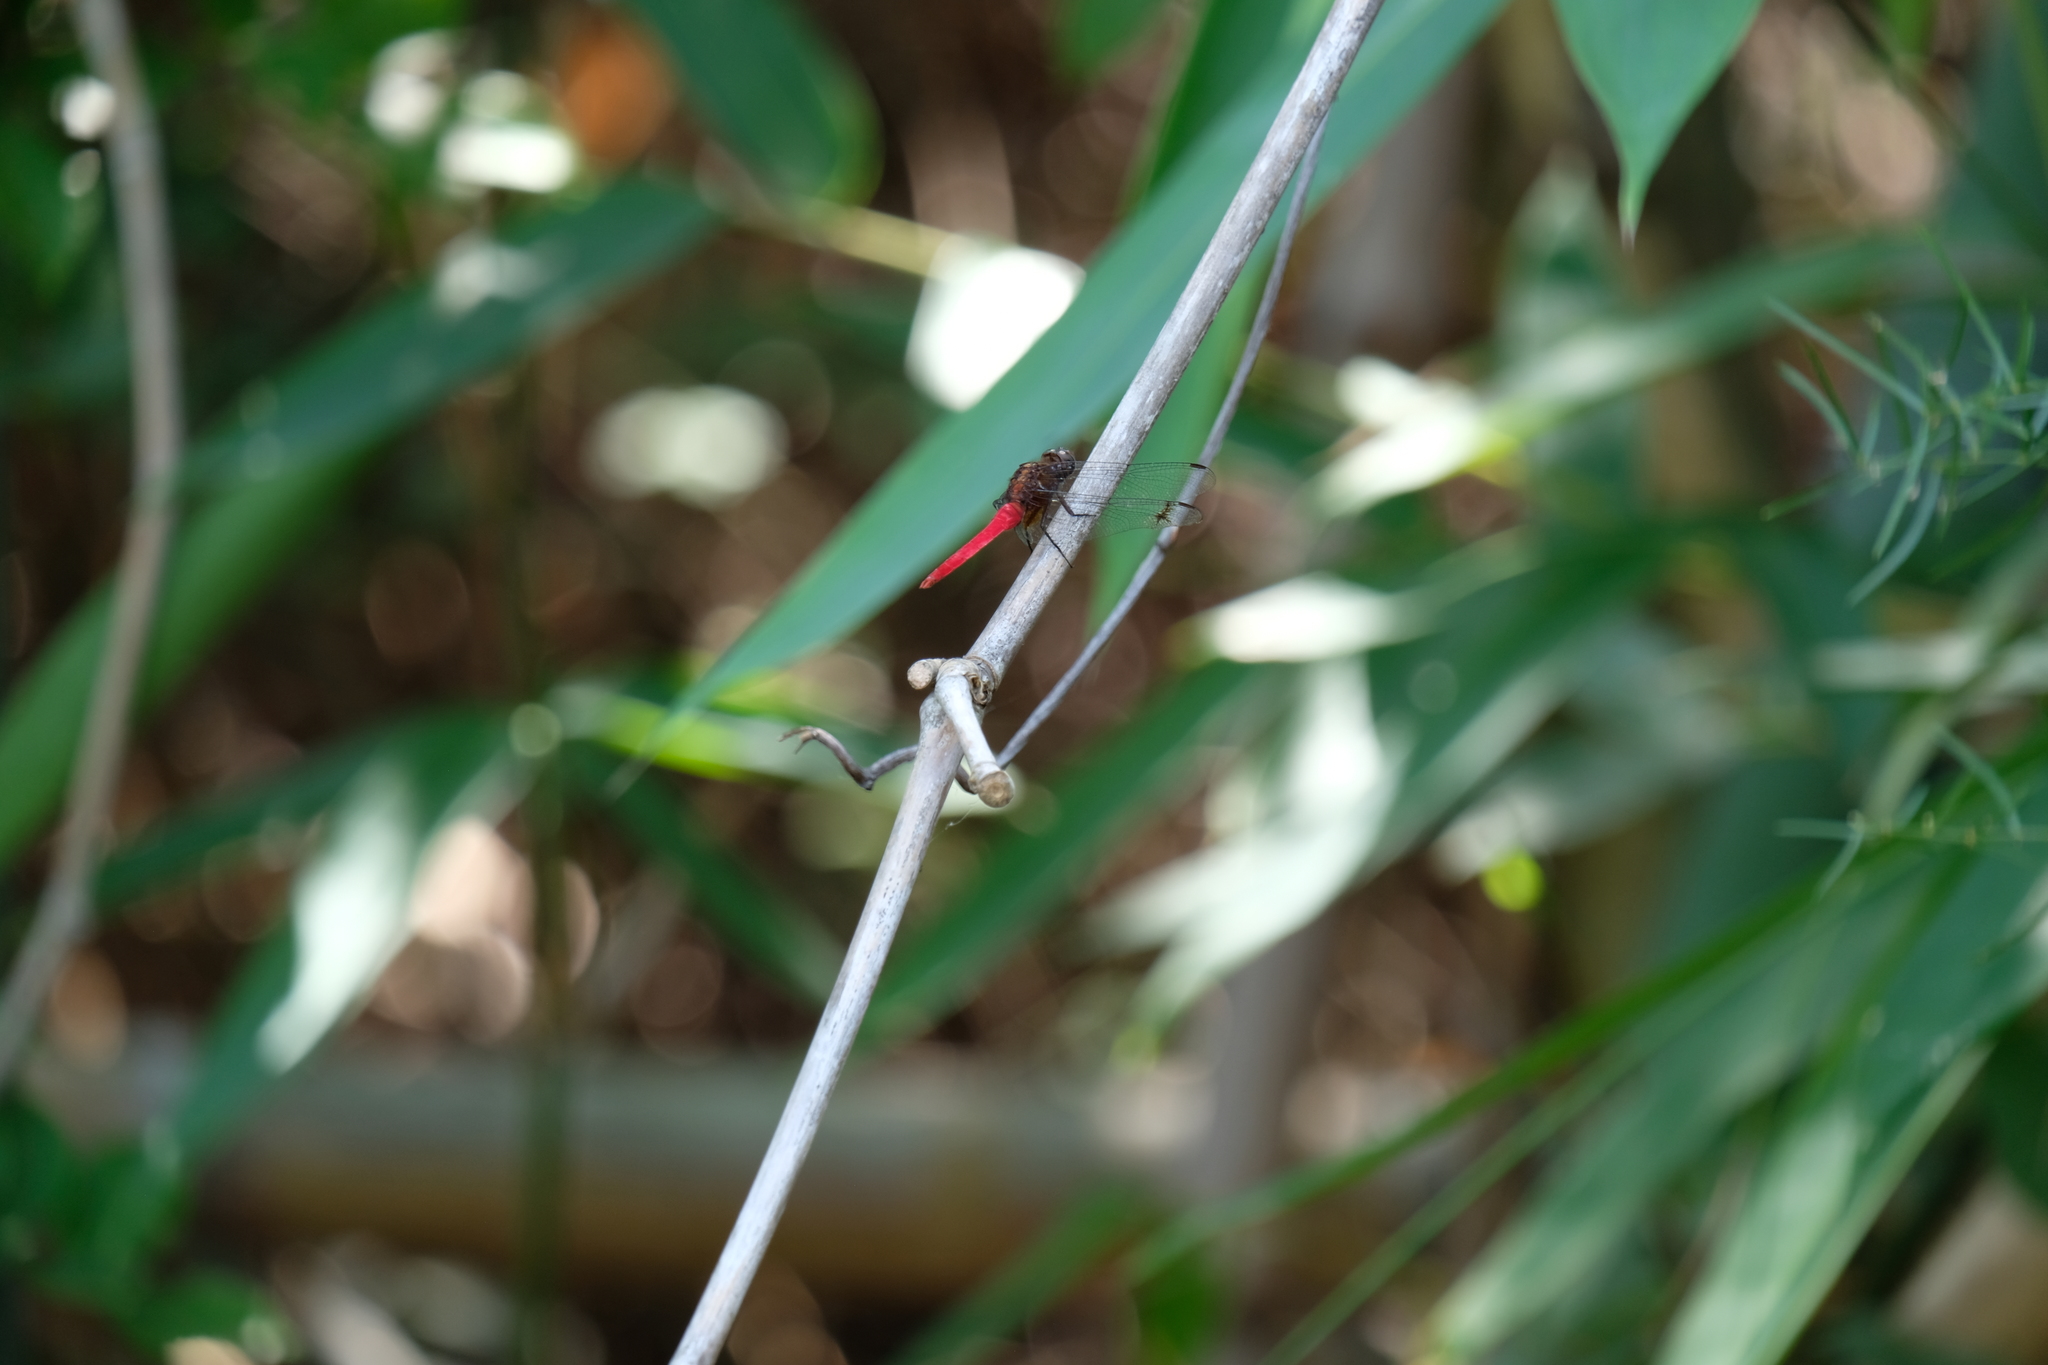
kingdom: Animalia
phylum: Arthropoda
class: Insecta
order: Odonata
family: Libellulidae
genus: Orthetrum
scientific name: Orthetrum chrysis
